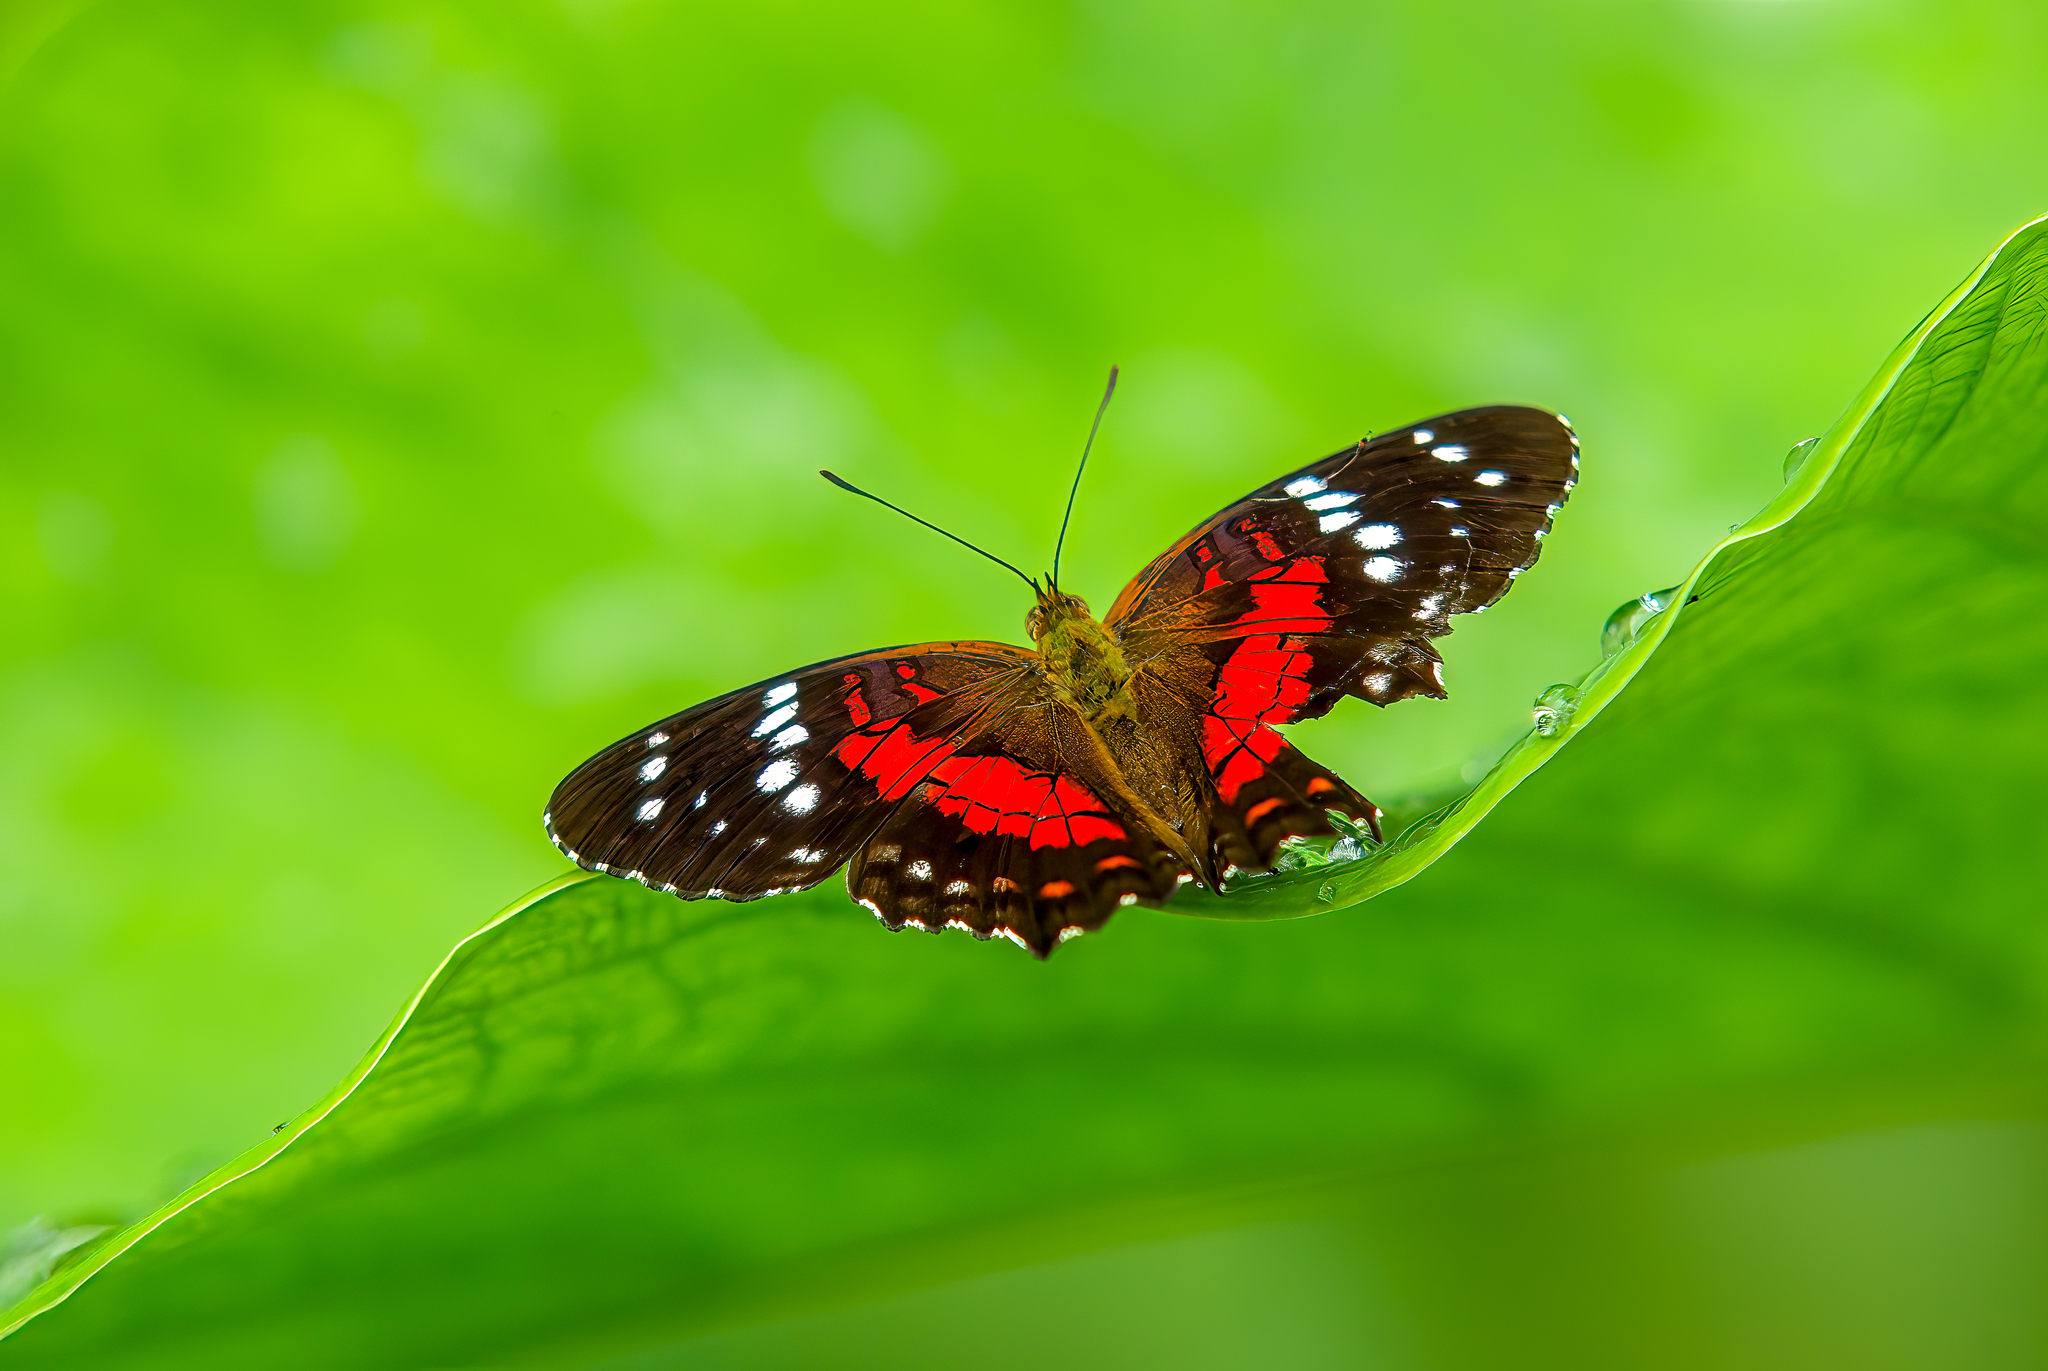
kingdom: Animalia
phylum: Arthropoda
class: Insecta
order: Lepidoptera
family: Nymphalidae
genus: Anartia
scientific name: Anartia amathea
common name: Red peacock
